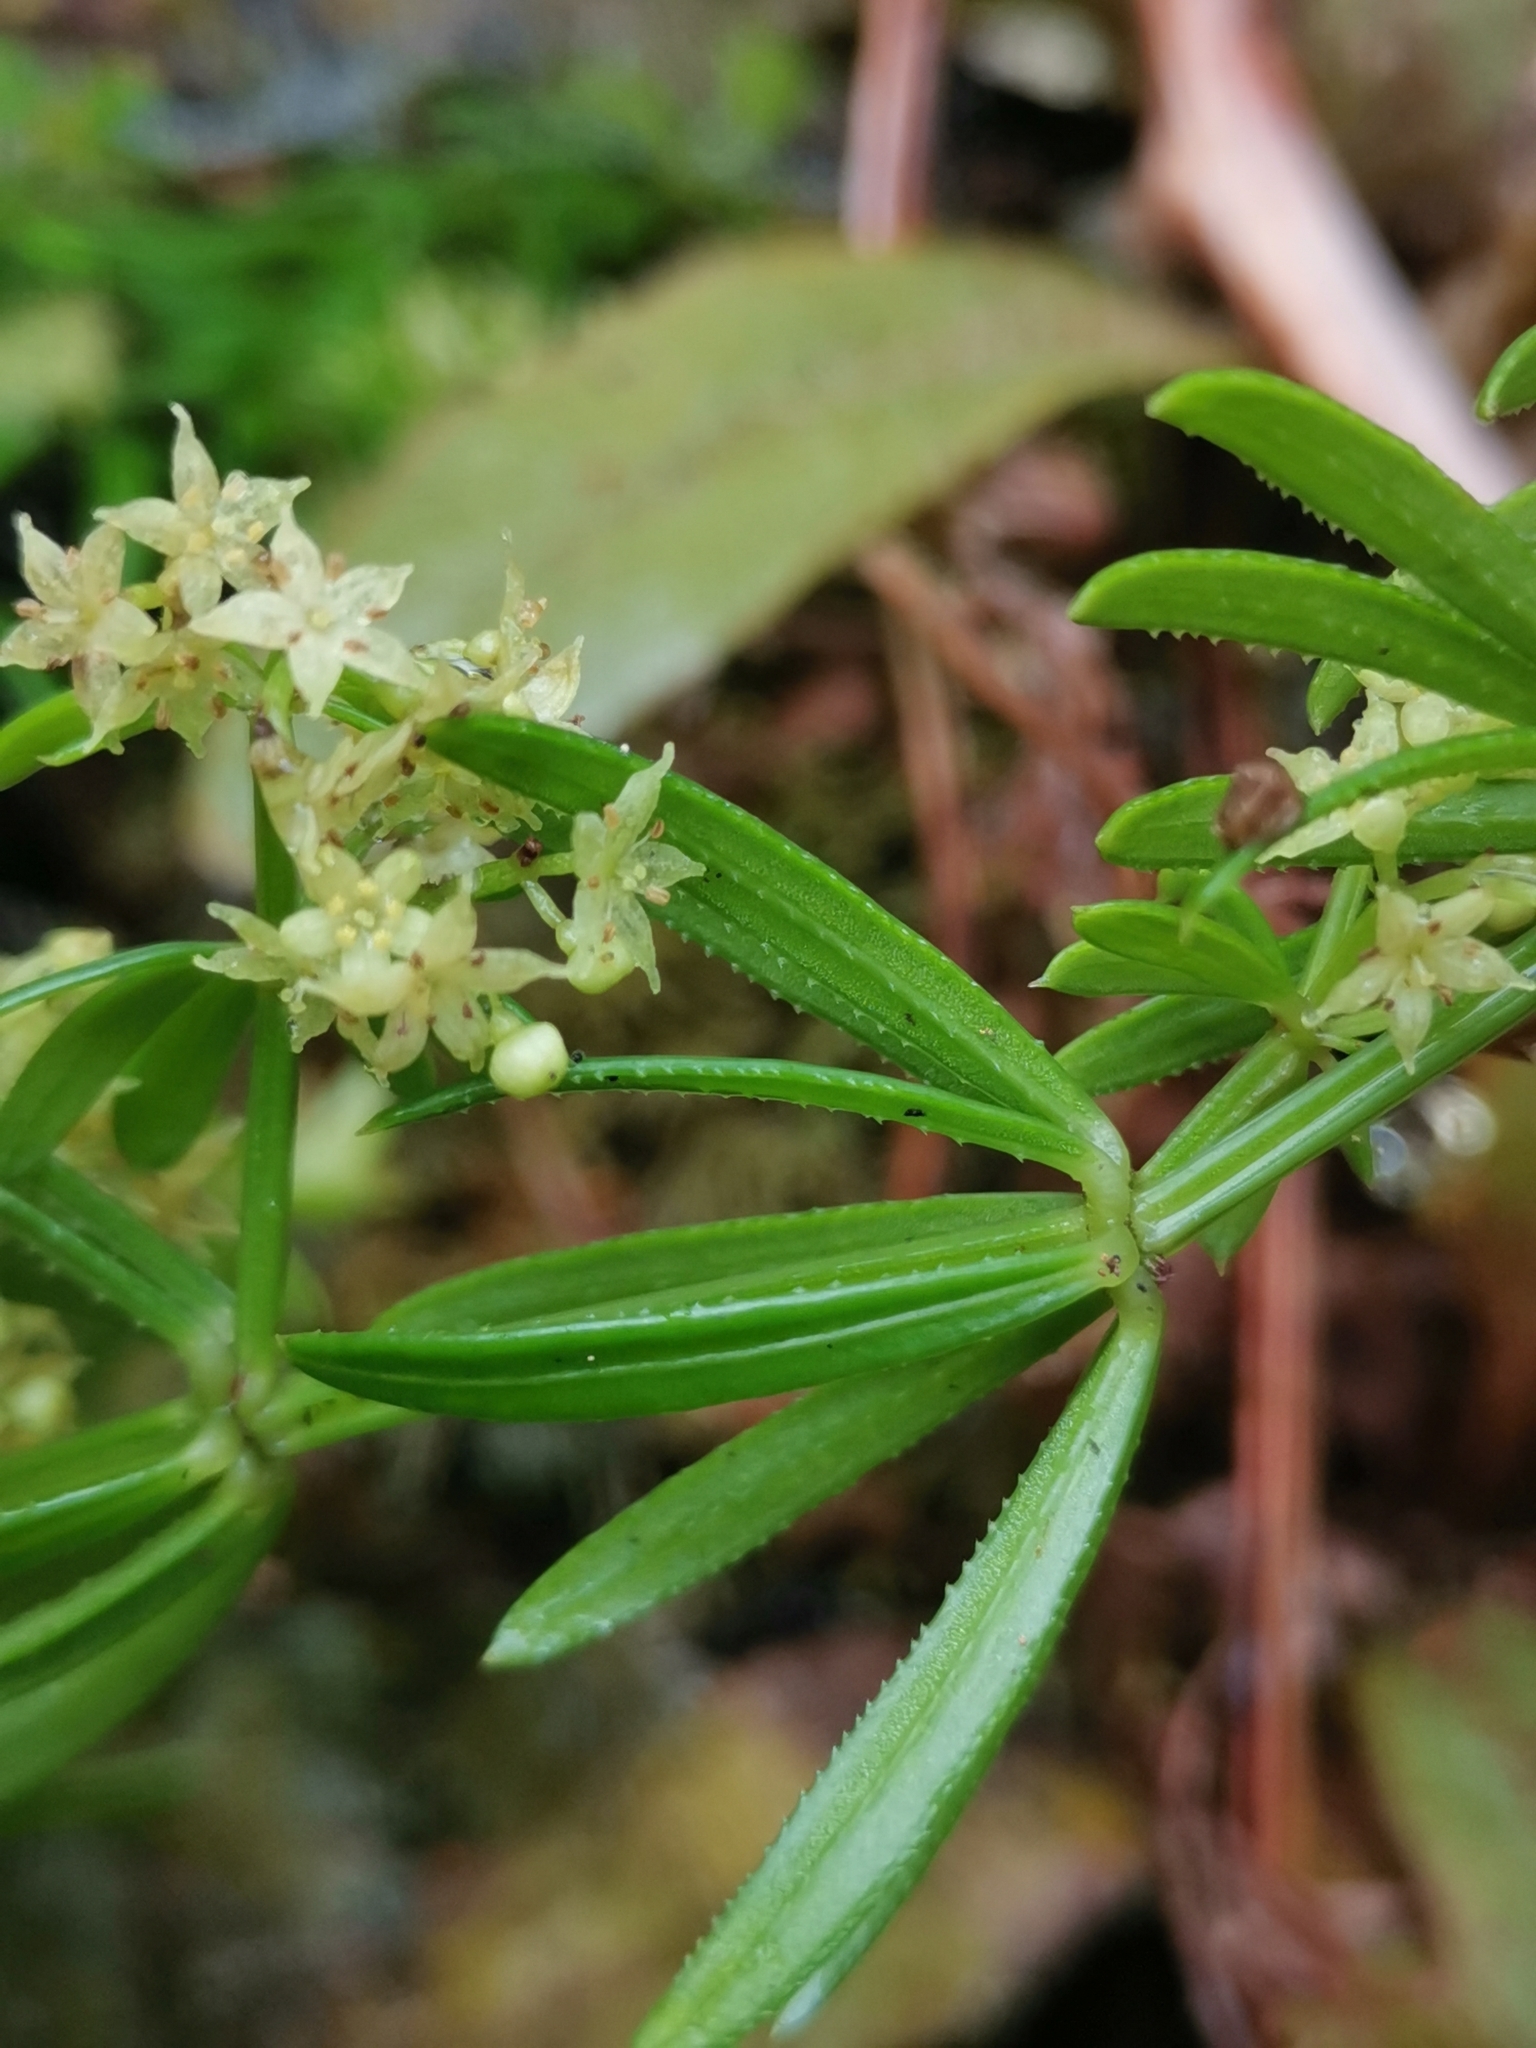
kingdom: Plantae
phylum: Tracheophyta
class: Magnoliopsida
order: Gentianales
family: Rubiaceae
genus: Rubia
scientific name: Rubia agostinhoi
